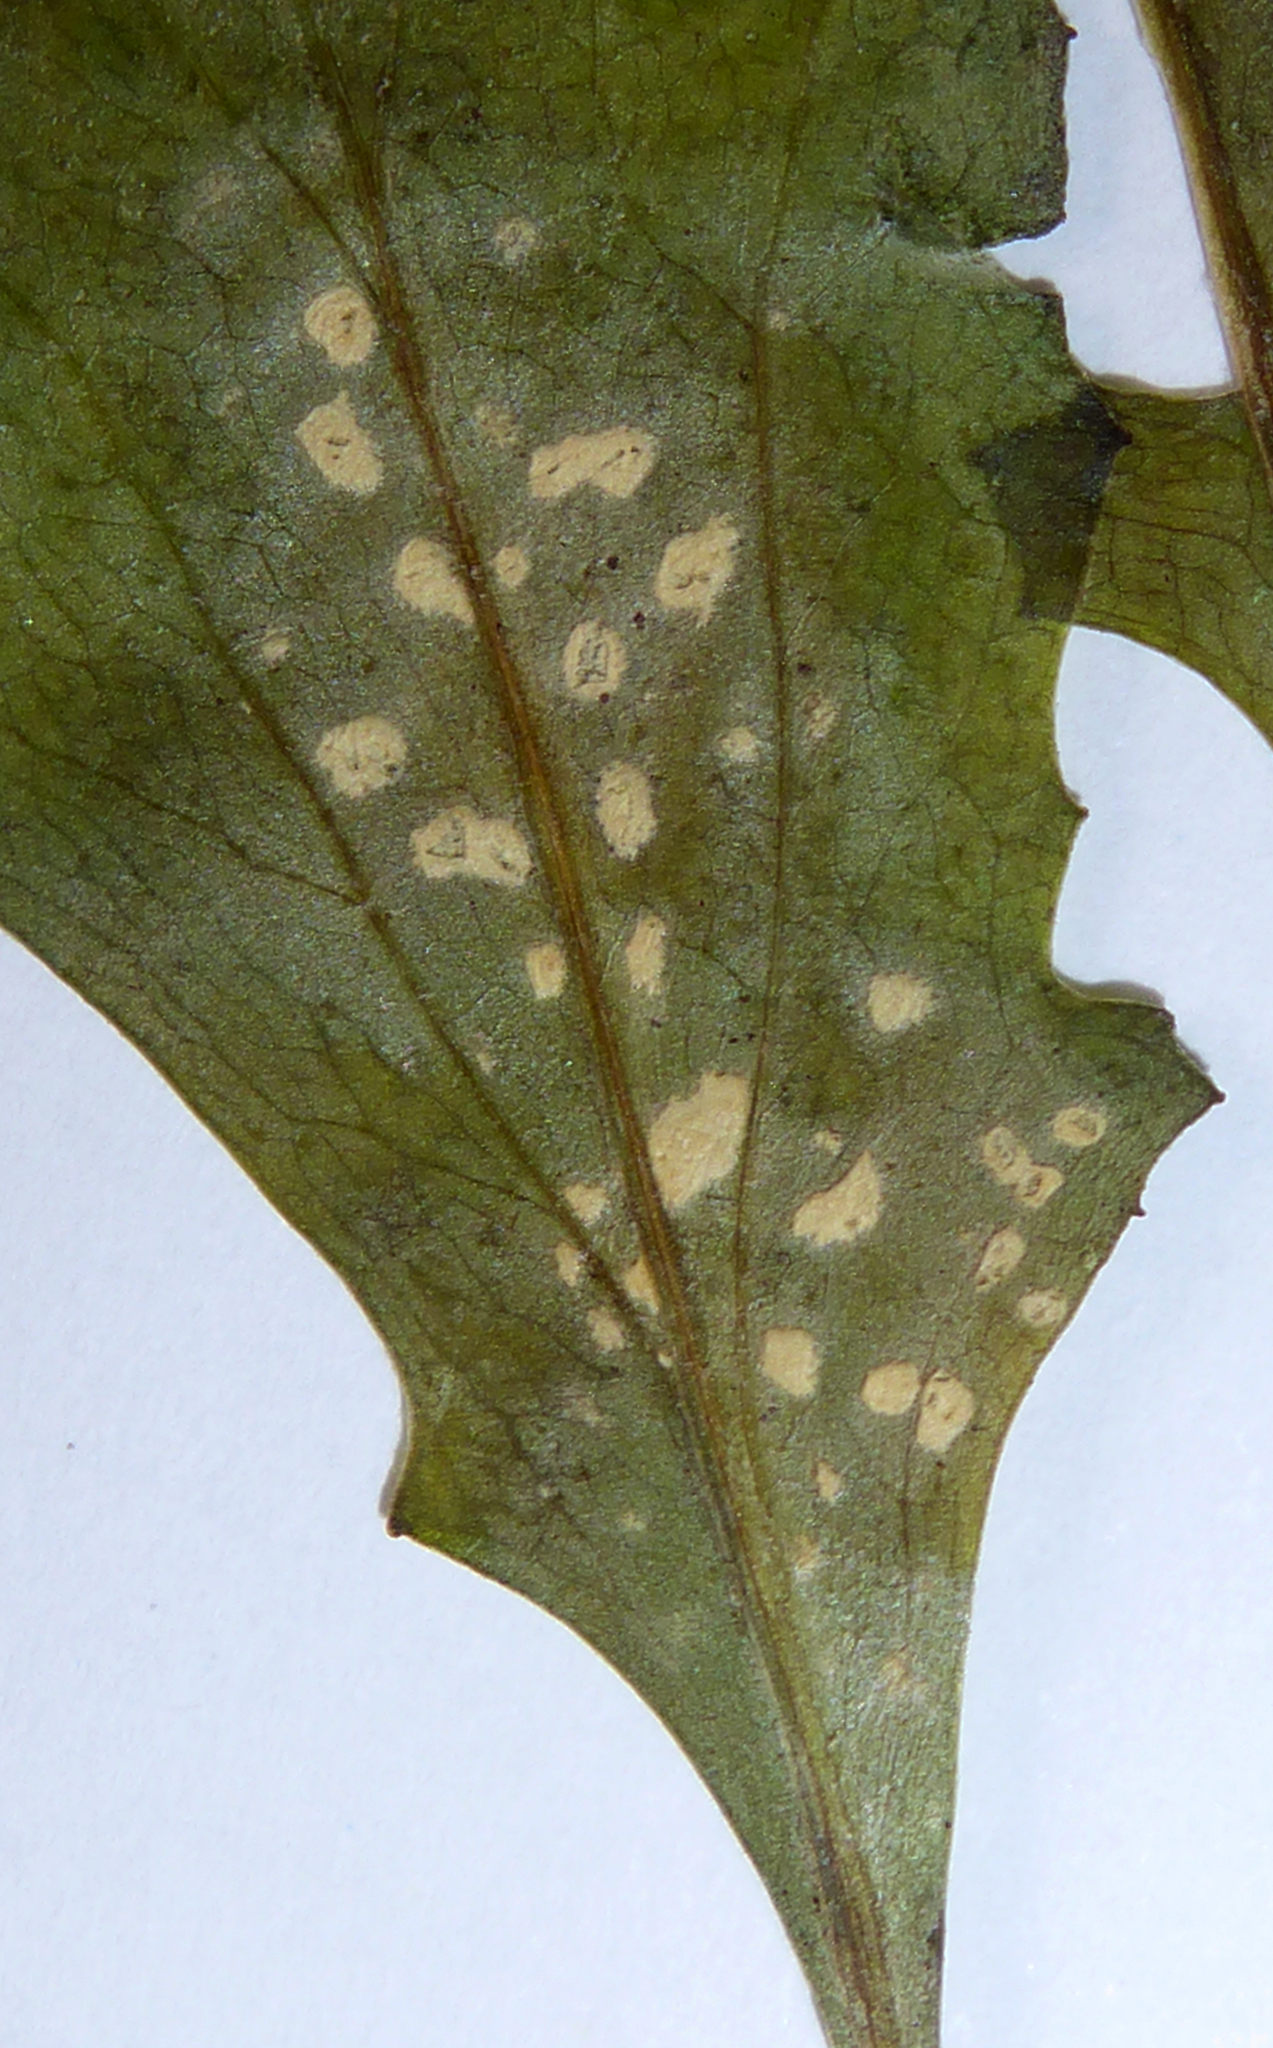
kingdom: Chromista
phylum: Oomycota
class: Peronosporea
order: Albuginales
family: Albuginaceae
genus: Pustula
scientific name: Pustula
